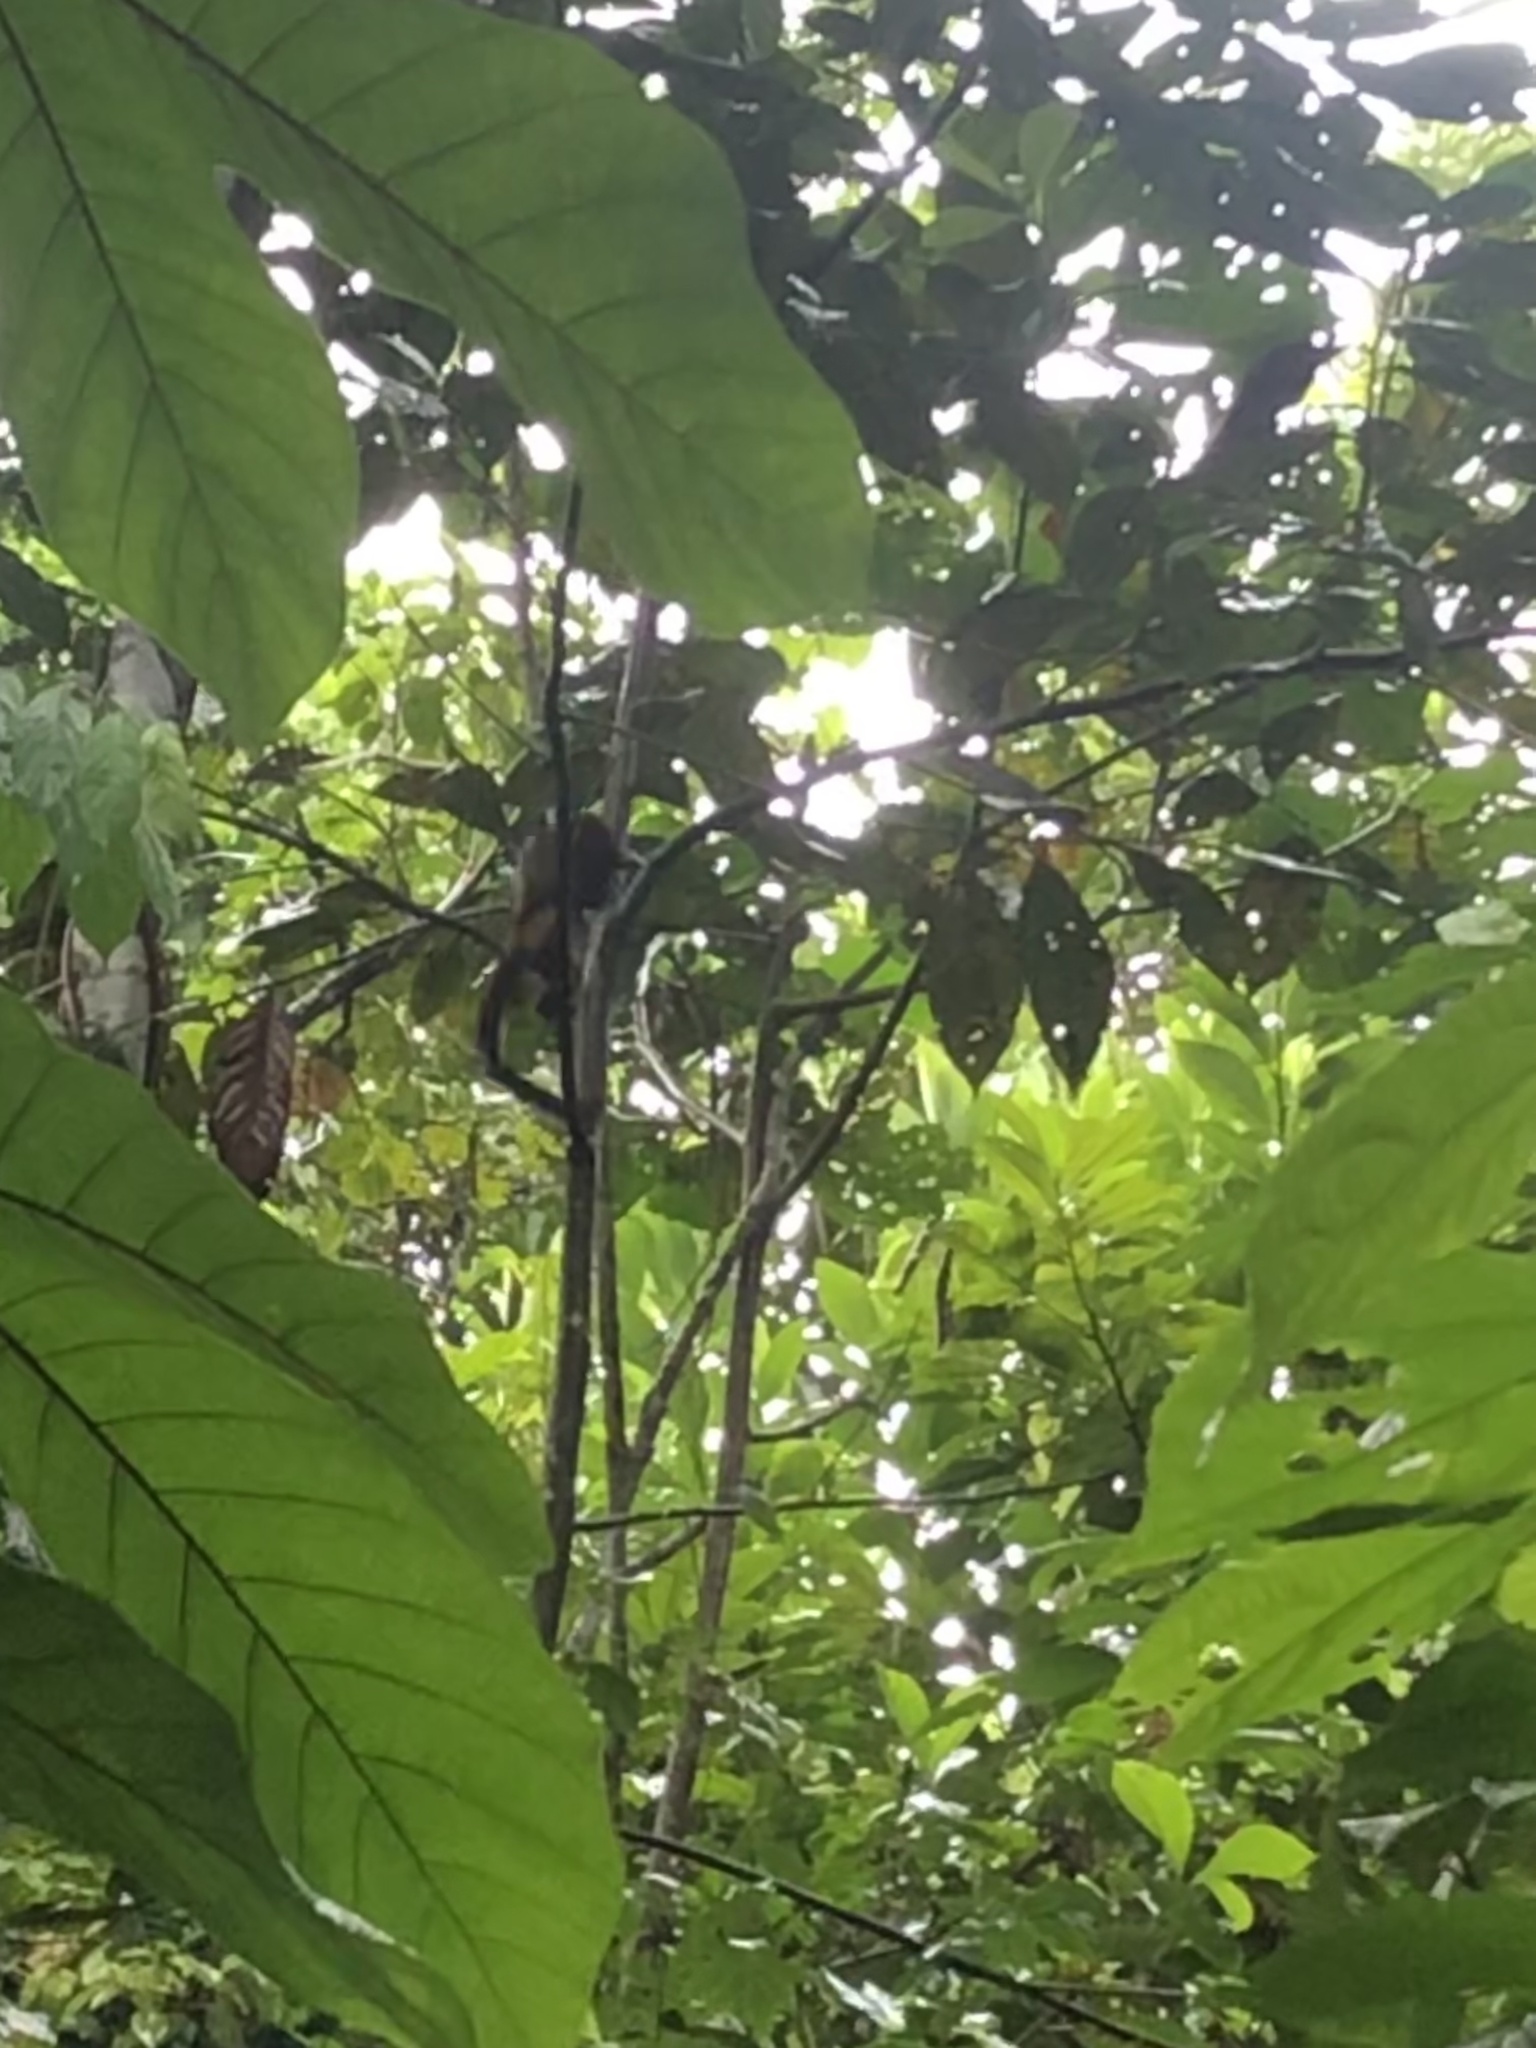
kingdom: Animalia
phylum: Chordata
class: Mammalia
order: Primates
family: Callitrichidae
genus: Leontocebus
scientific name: Leontocebus weddelli
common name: Weddell's saddle-back tamarin
